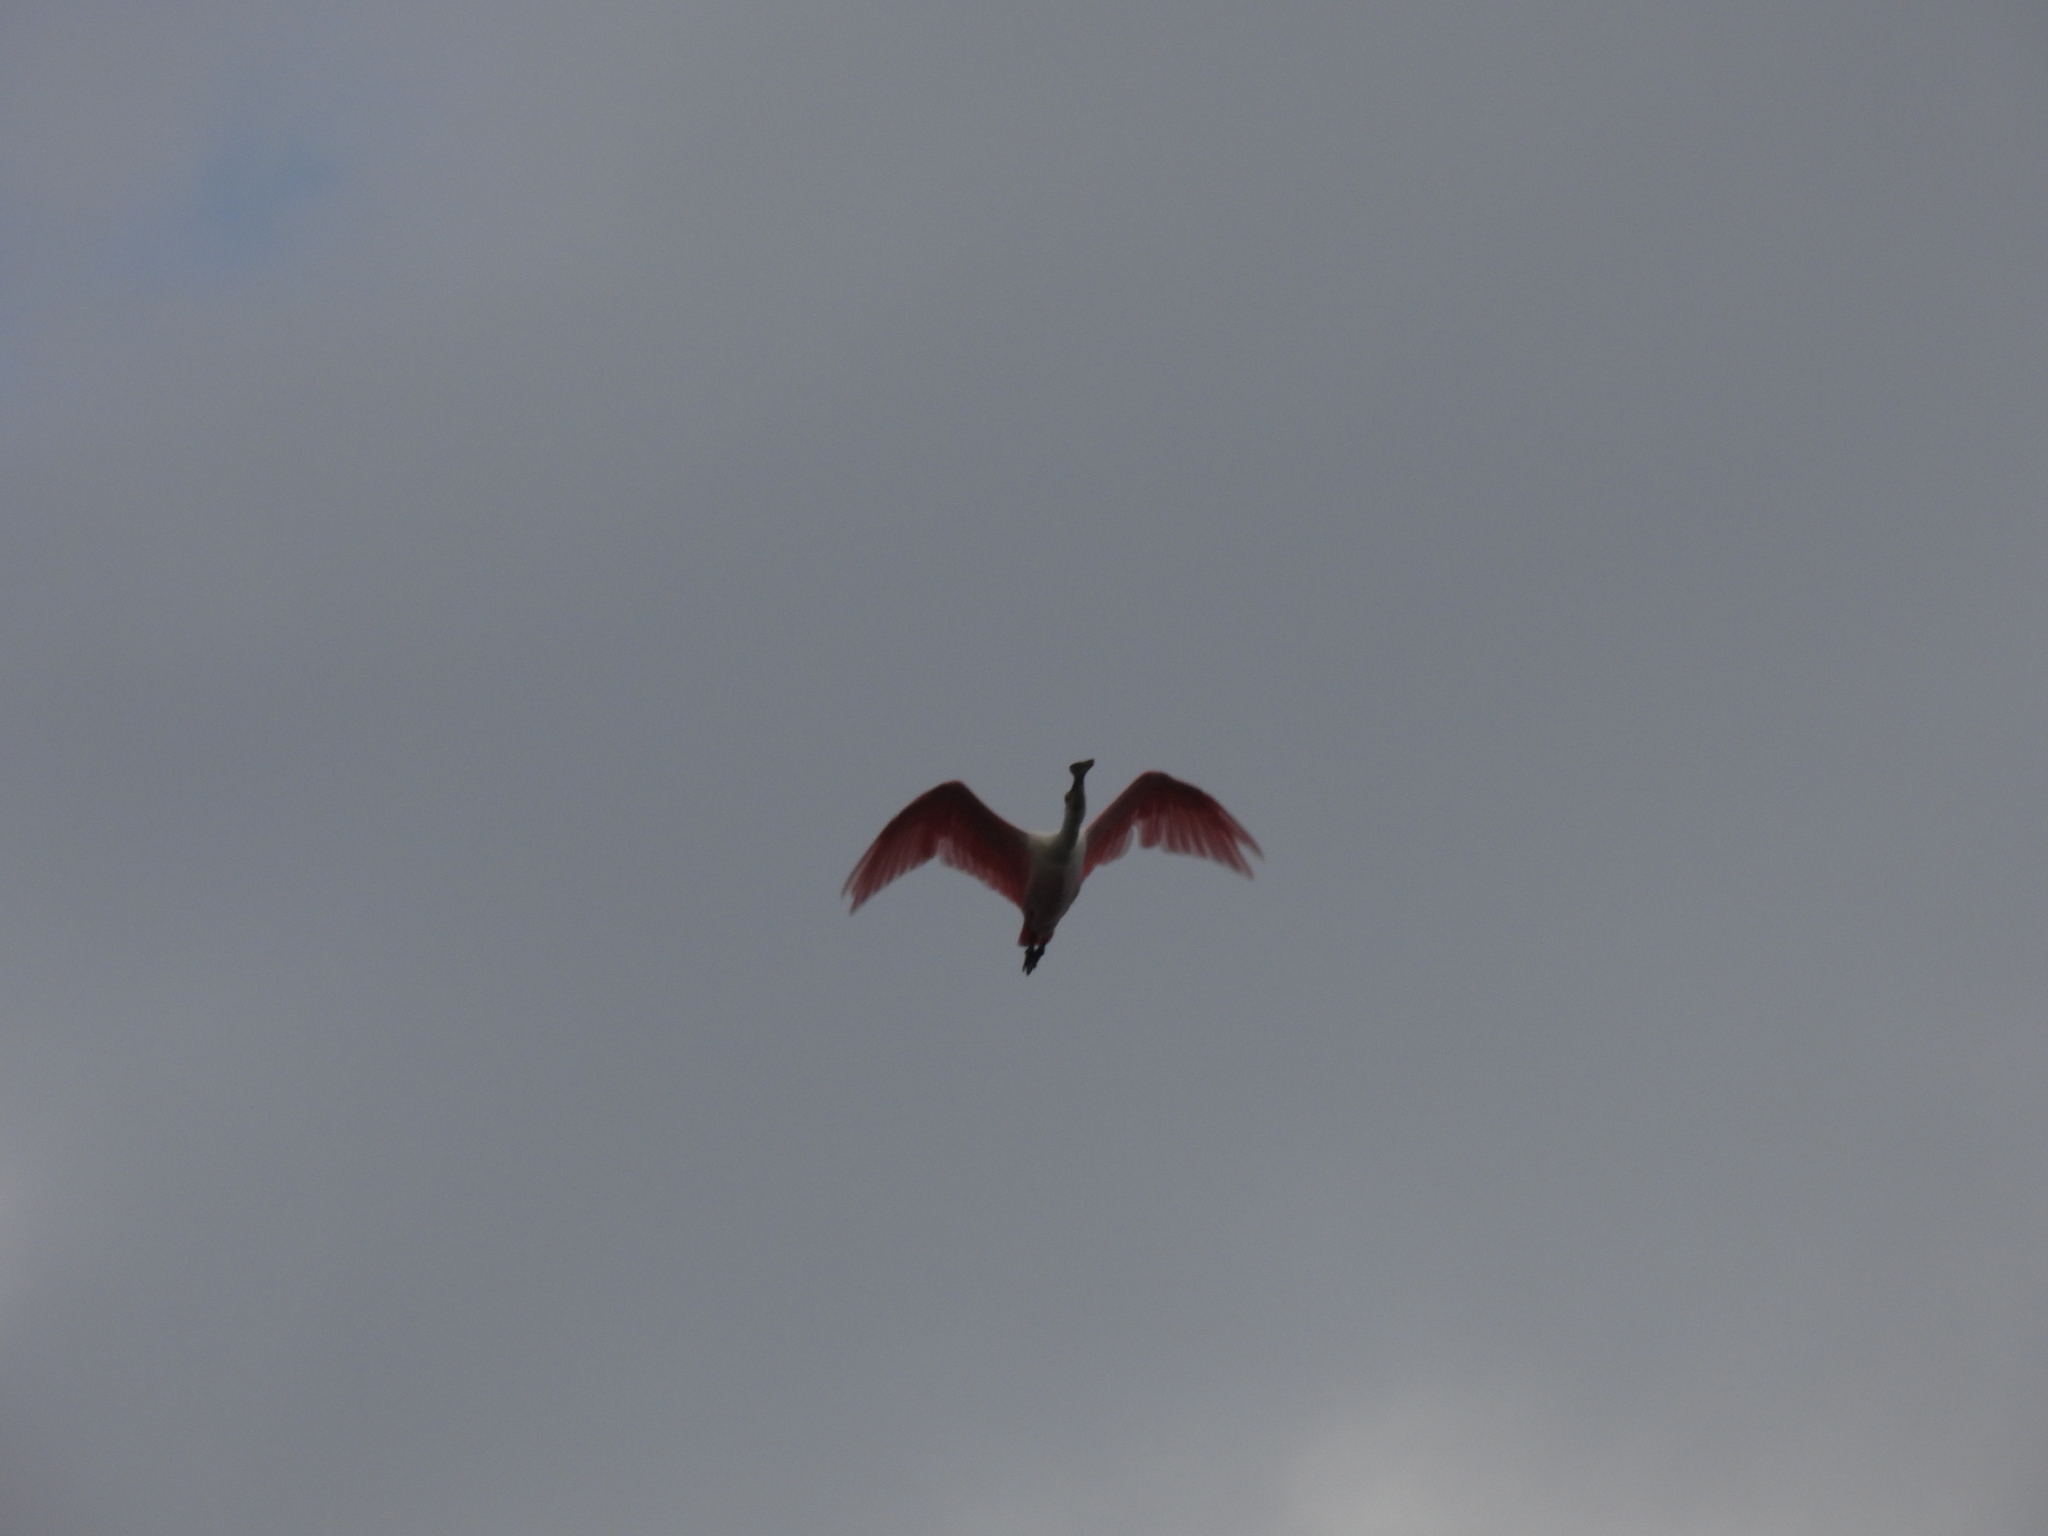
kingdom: Animalia
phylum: Chordata
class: Aves
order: Pelecaniformes
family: Threskiornithidae
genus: Platalea
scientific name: Platalea ajaja
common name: Roseate spoonbill
